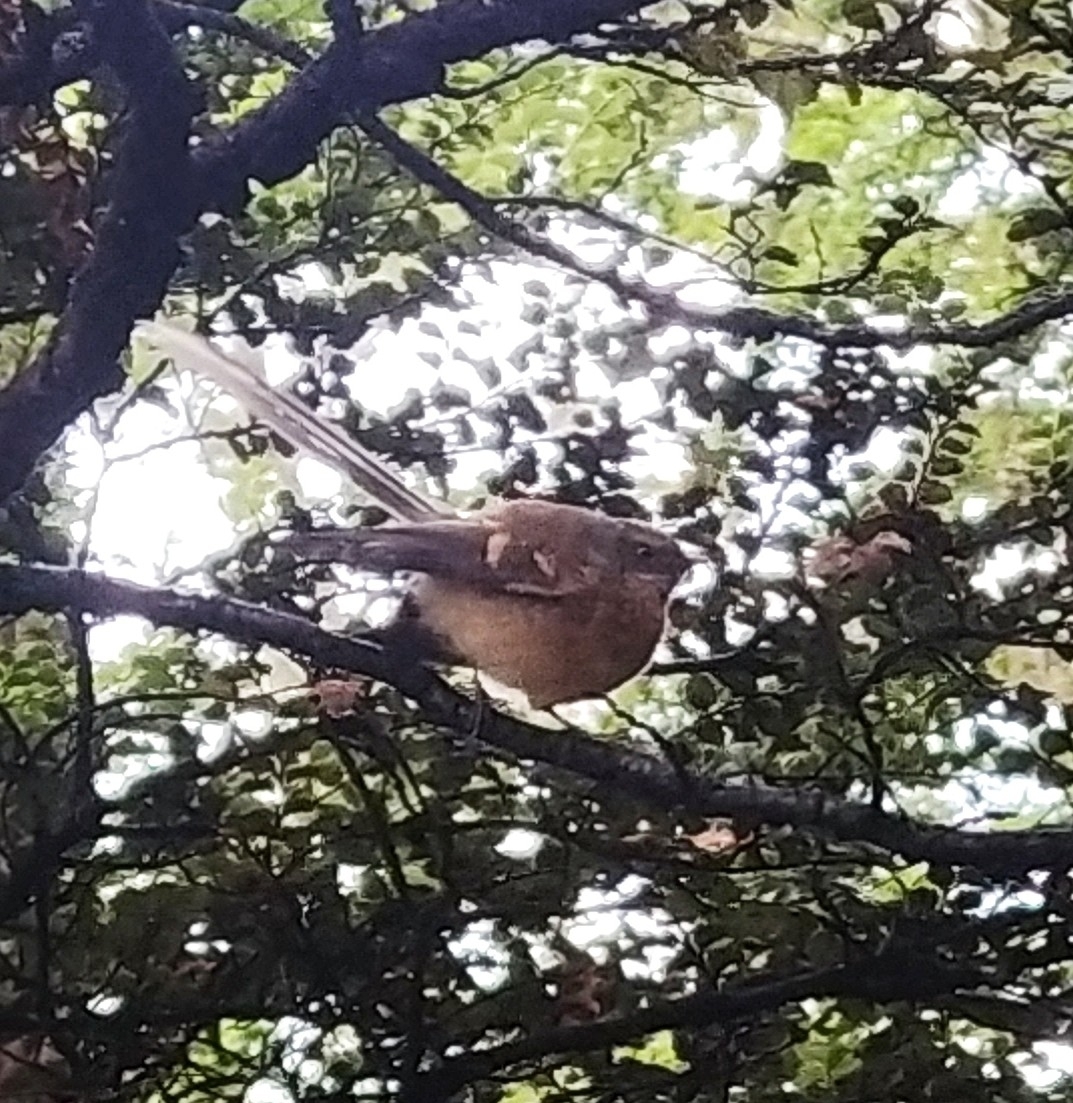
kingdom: Animalia
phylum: Chordata
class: Aves
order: Passeriformes
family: Rhipiduridae
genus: Rhipidura
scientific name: Rhipidura fuliginosa
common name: New zealand fantail
